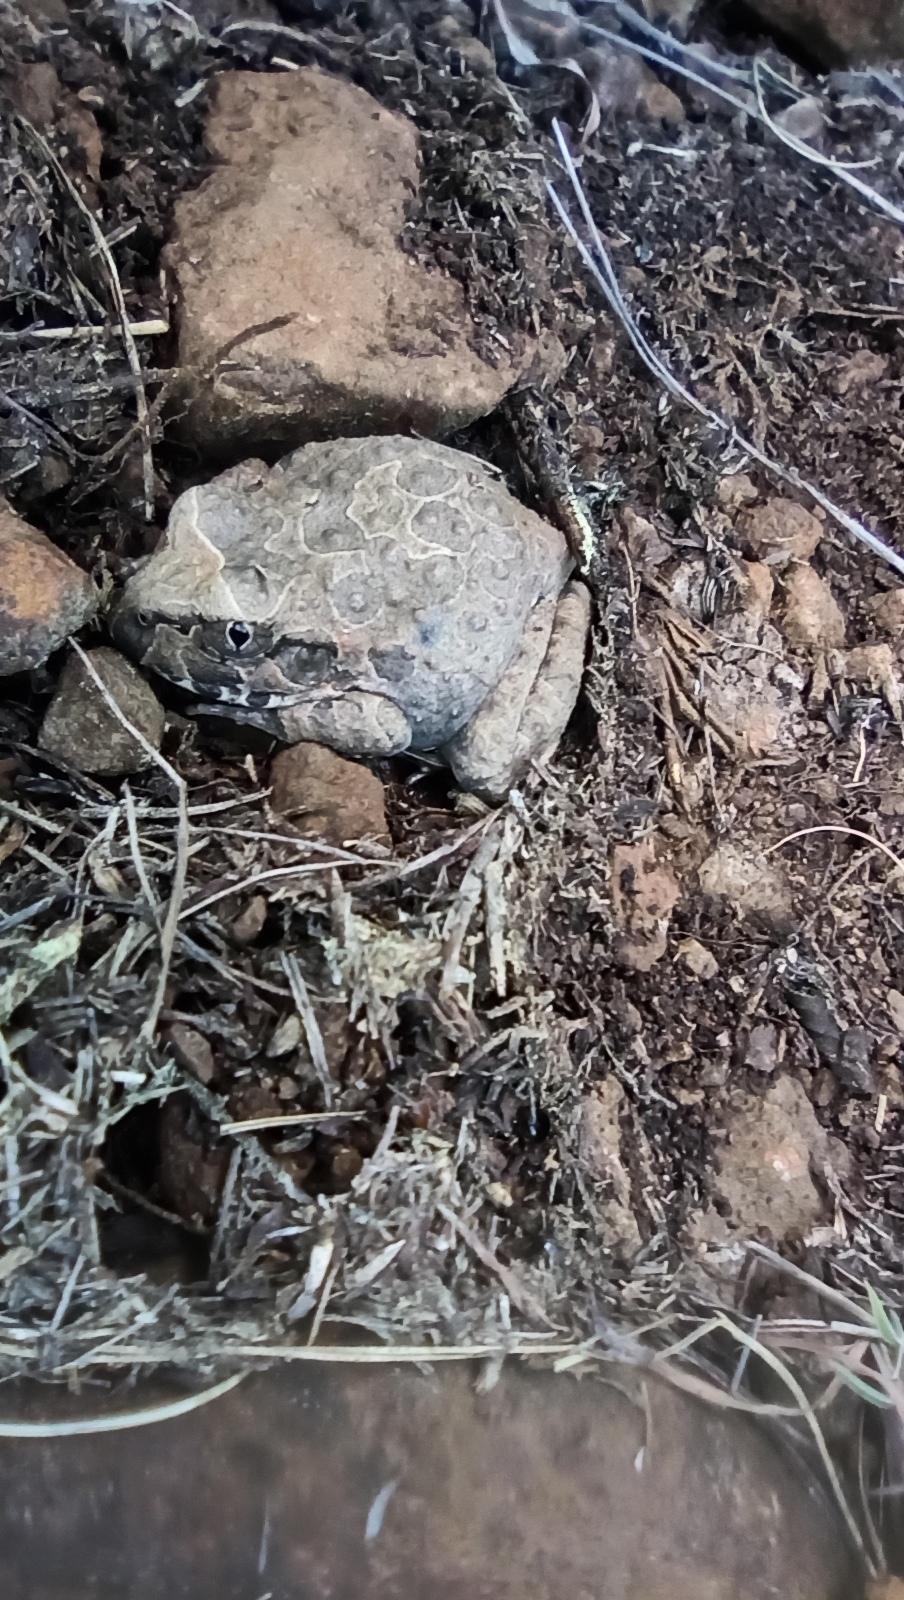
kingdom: Animalia
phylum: Chordata
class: Amphibia
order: Anura
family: Alsodidae
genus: Limnomedusa
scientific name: Limnomedusa macroglossa
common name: Rapids frog
